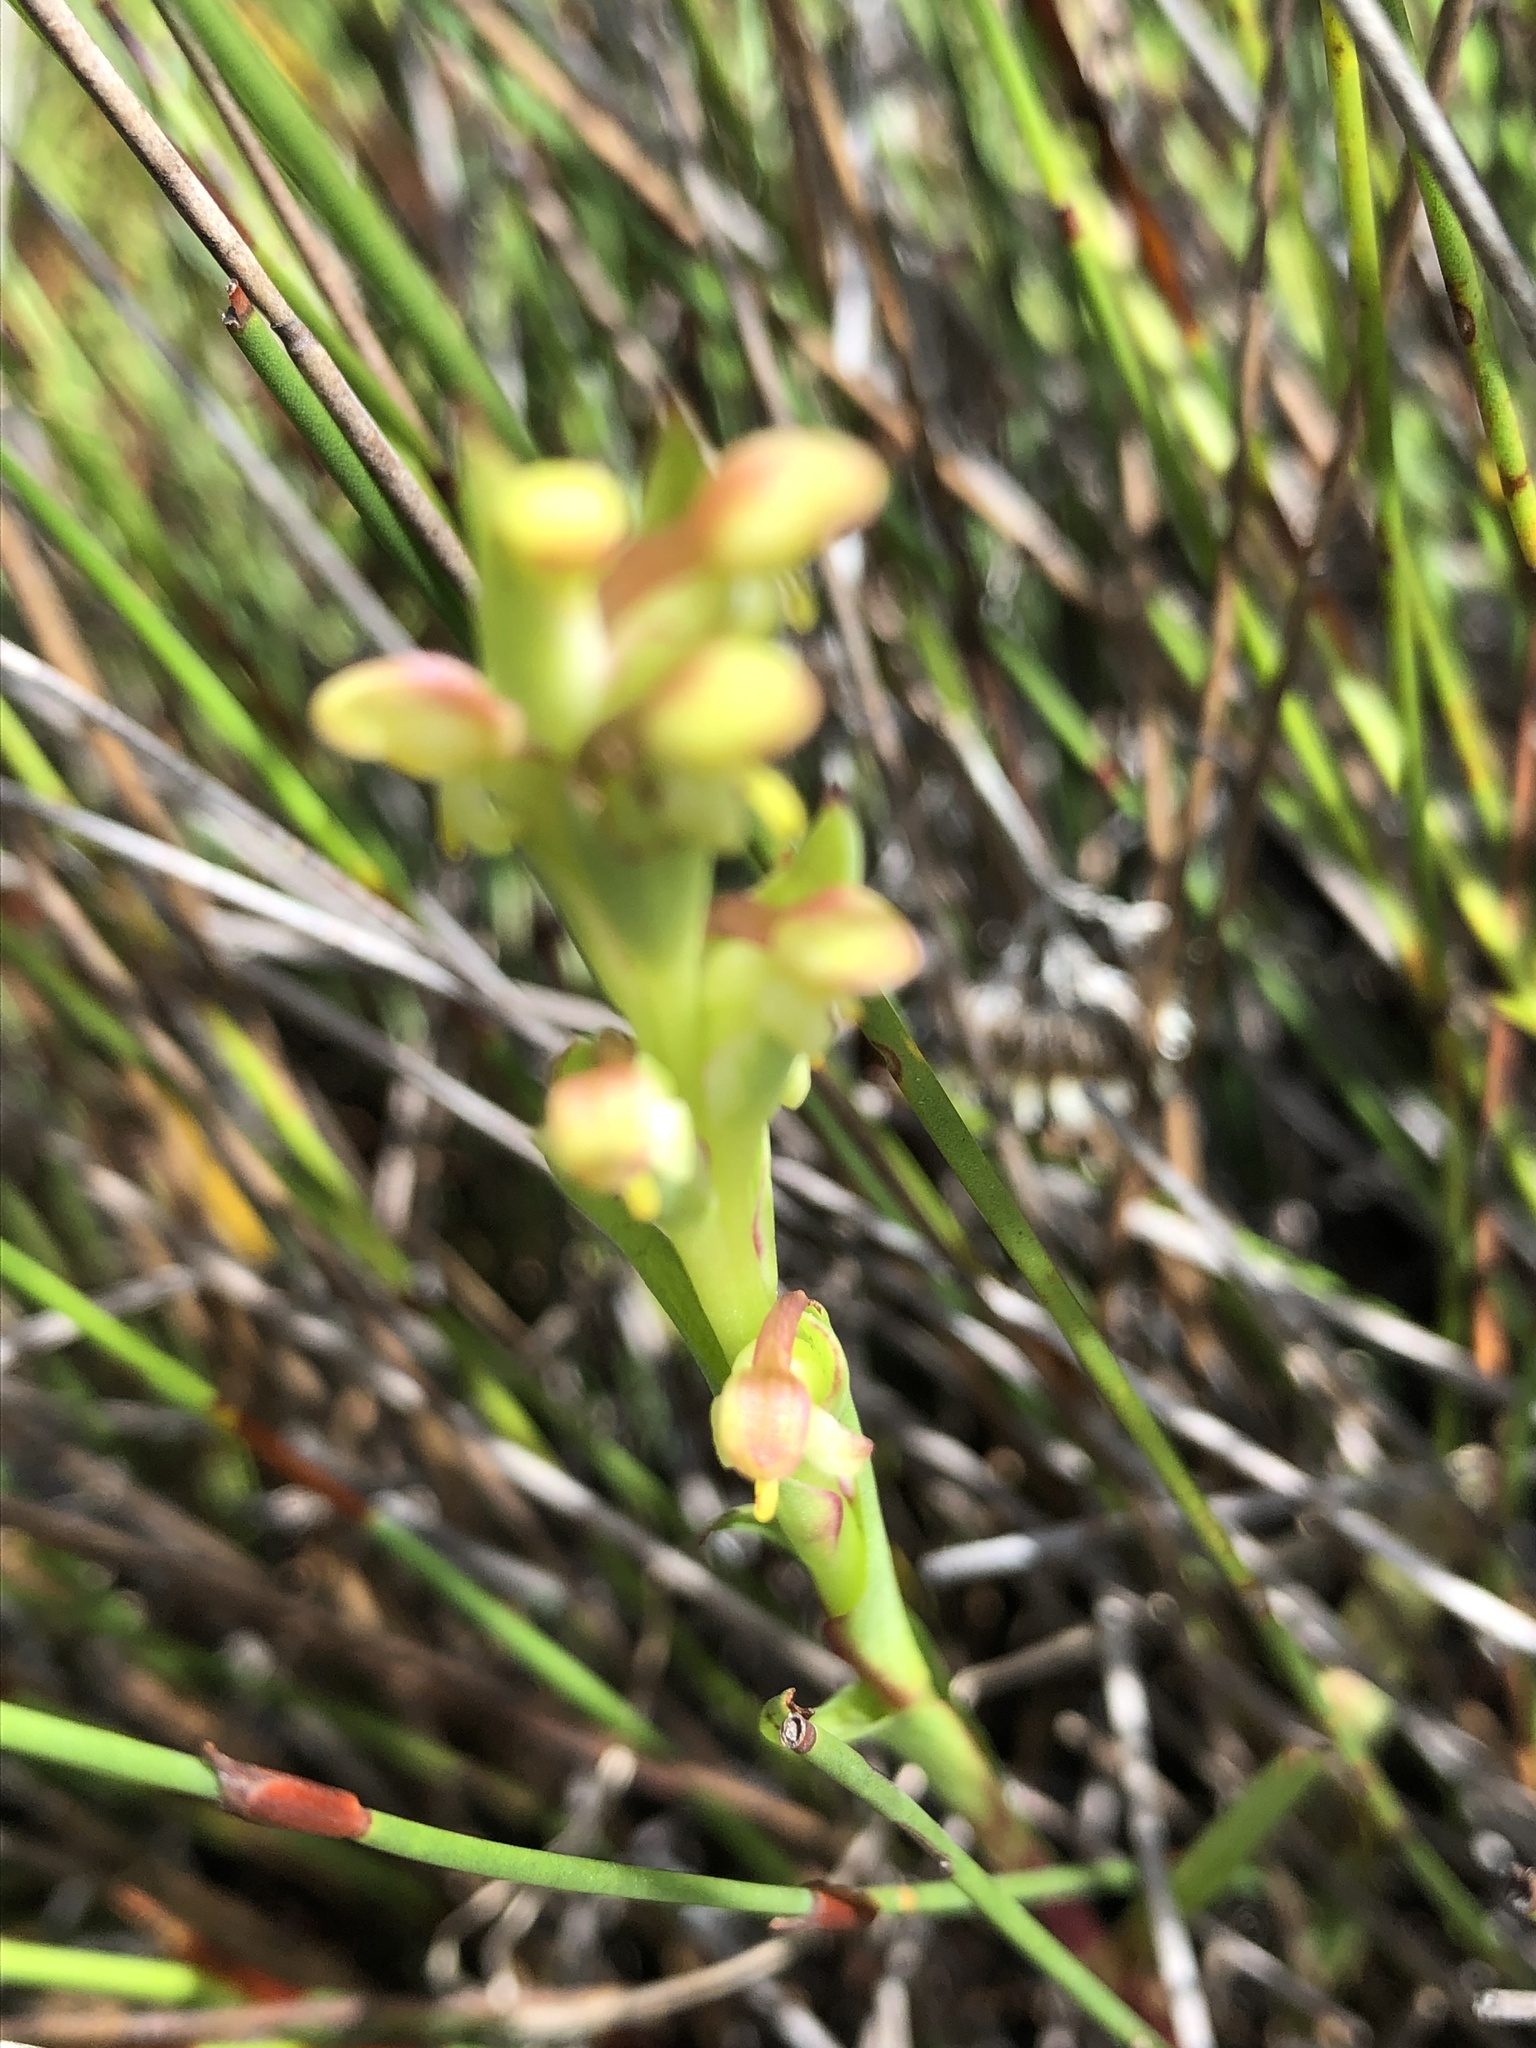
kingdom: Plantae
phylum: Tracheophyta
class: Liliopsida
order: Asparagales
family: Orchidaceae
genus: Disa
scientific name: Disa bracteata
